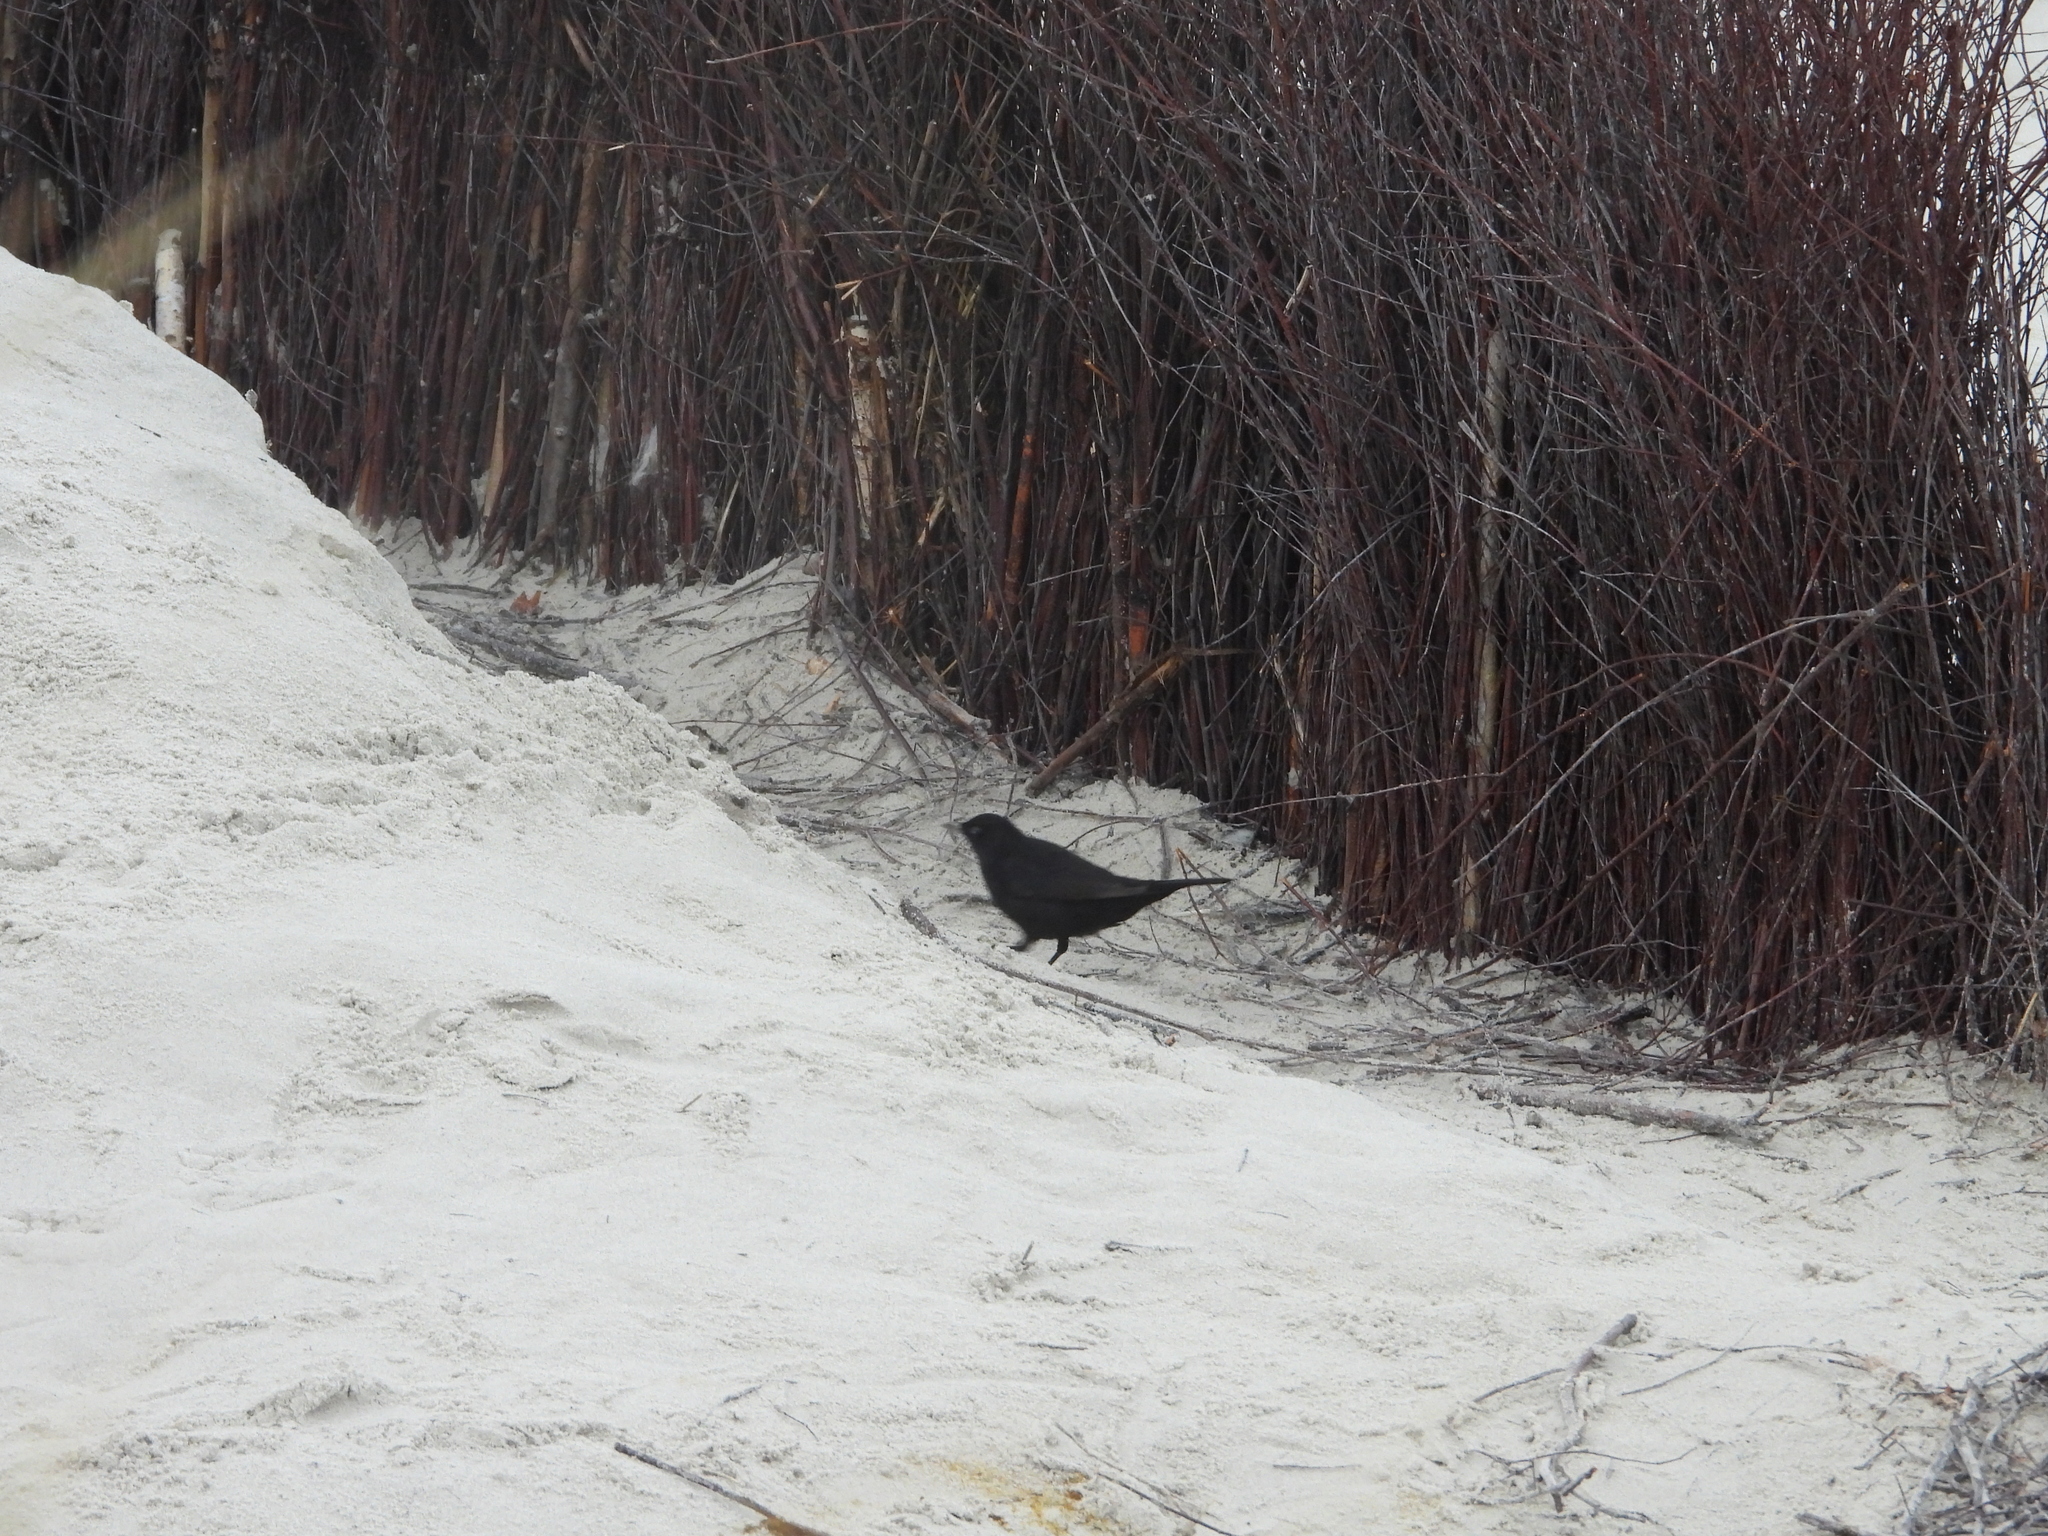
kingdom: Animalia
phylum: Chordata
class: Aves
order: Passeriformes
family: Turdidae
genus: Turdus
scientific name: Turdus merula
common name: Common blackbird
